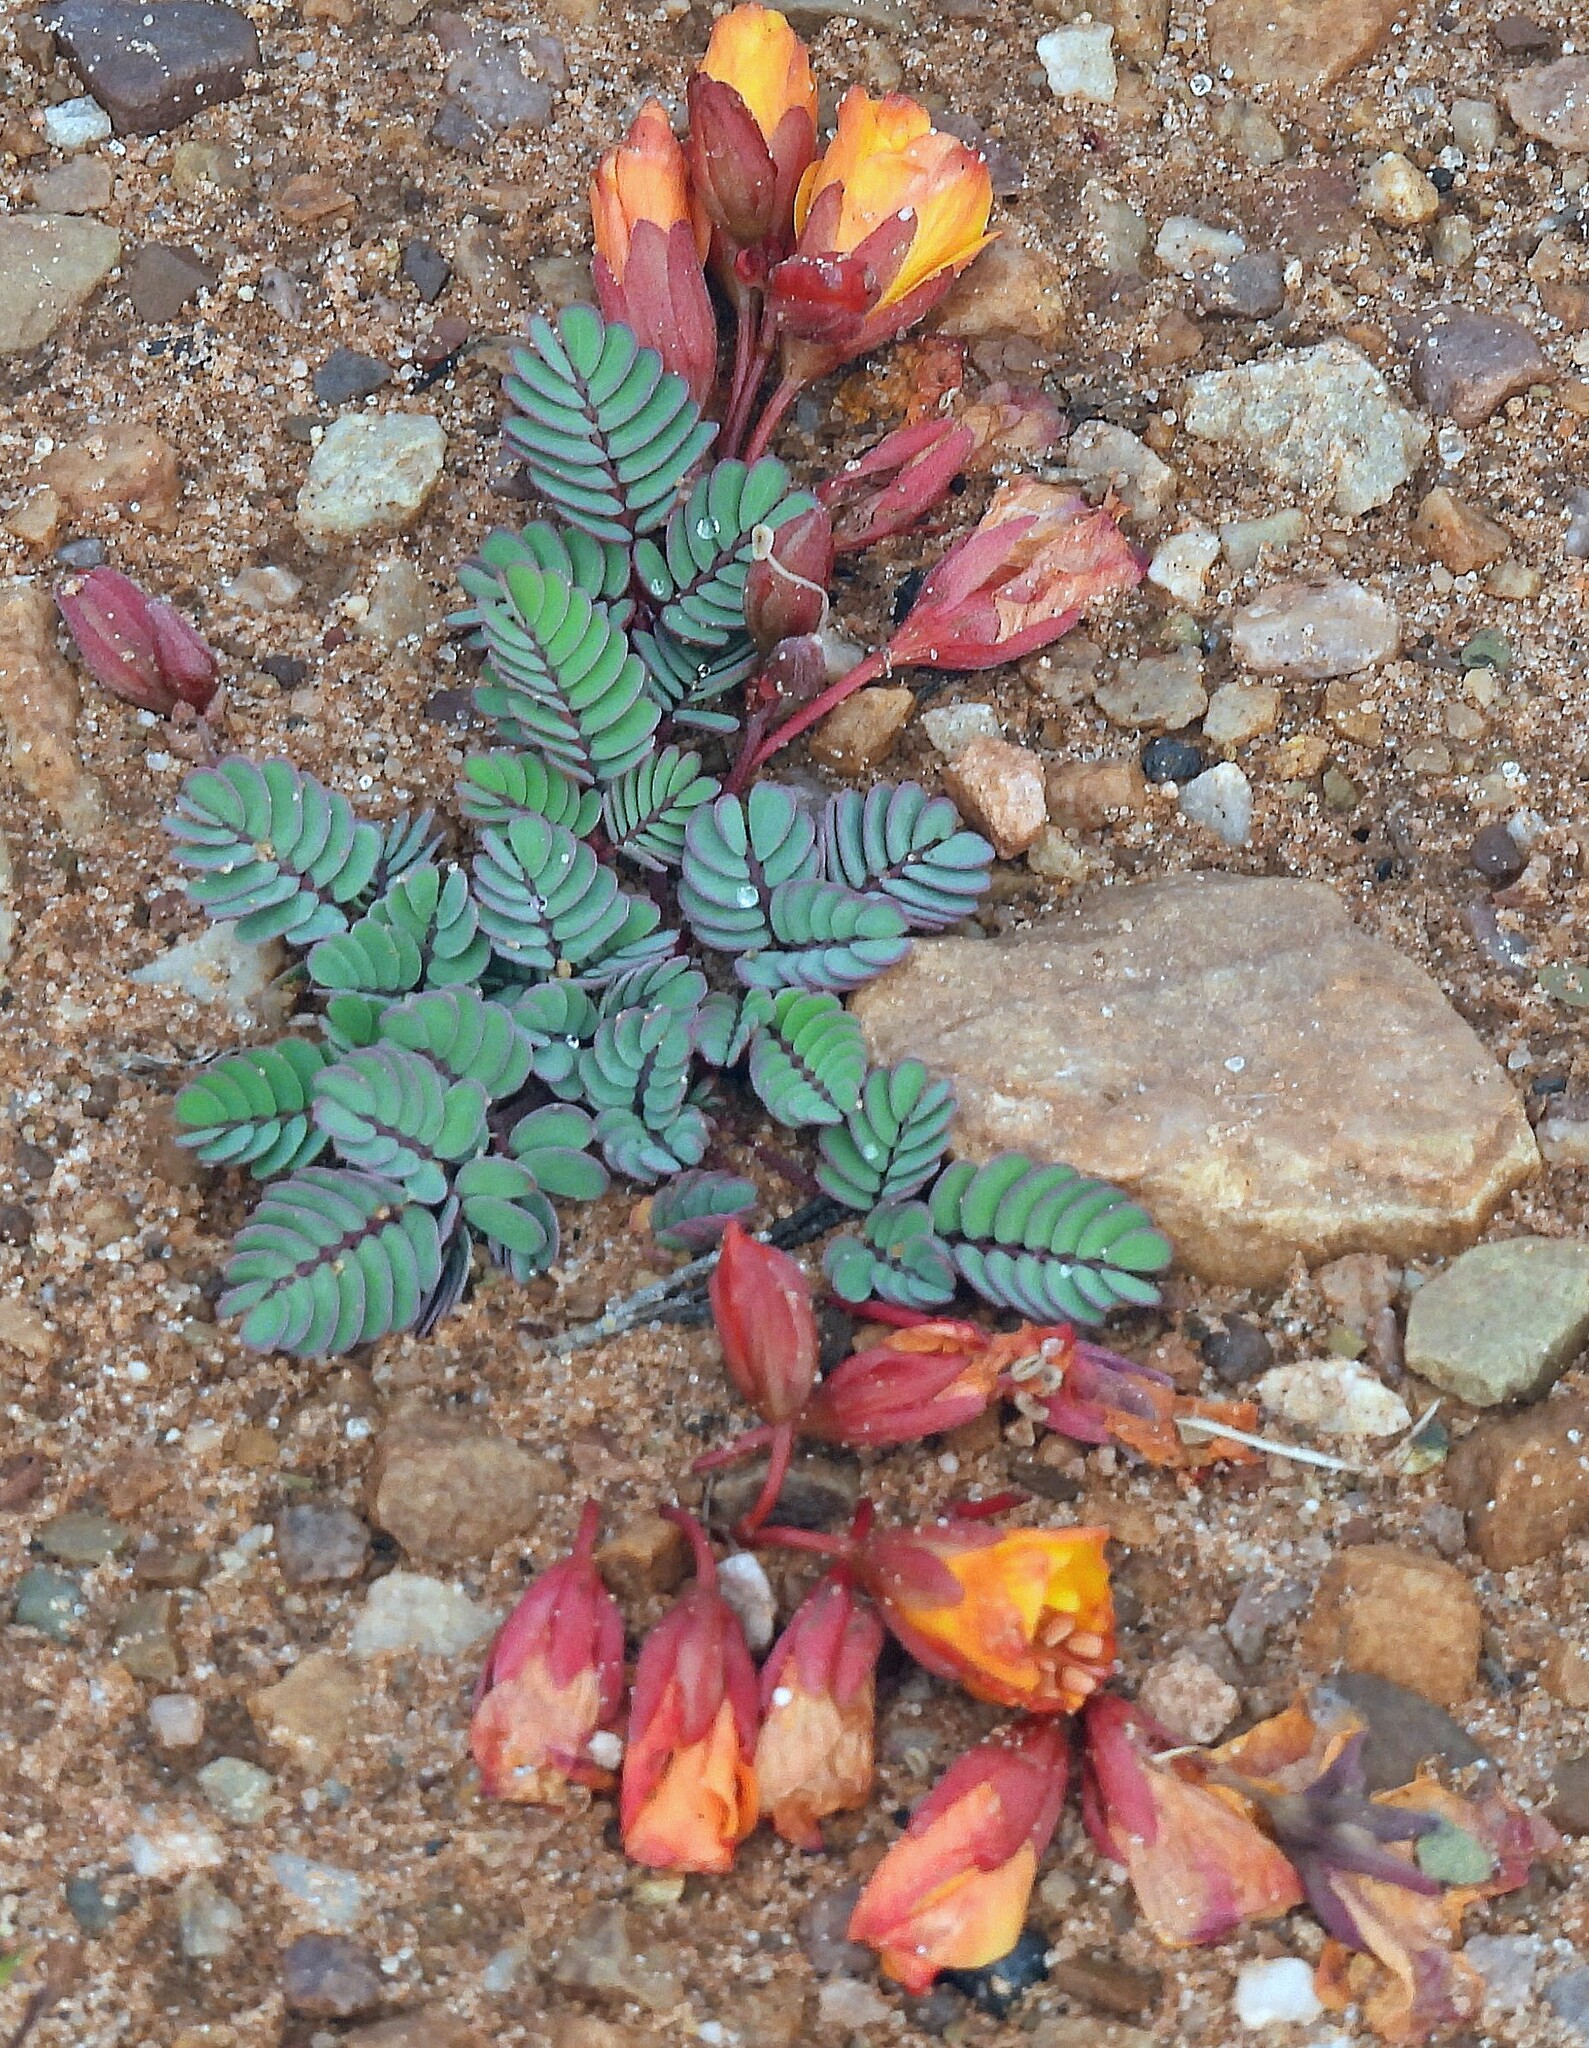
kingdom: Plantae
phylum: Tracheophyta
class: Magnoliopsida
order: Fabales
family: Fabaceae
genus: Hoffmannseggia
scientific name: Hoffmannseggia minor
